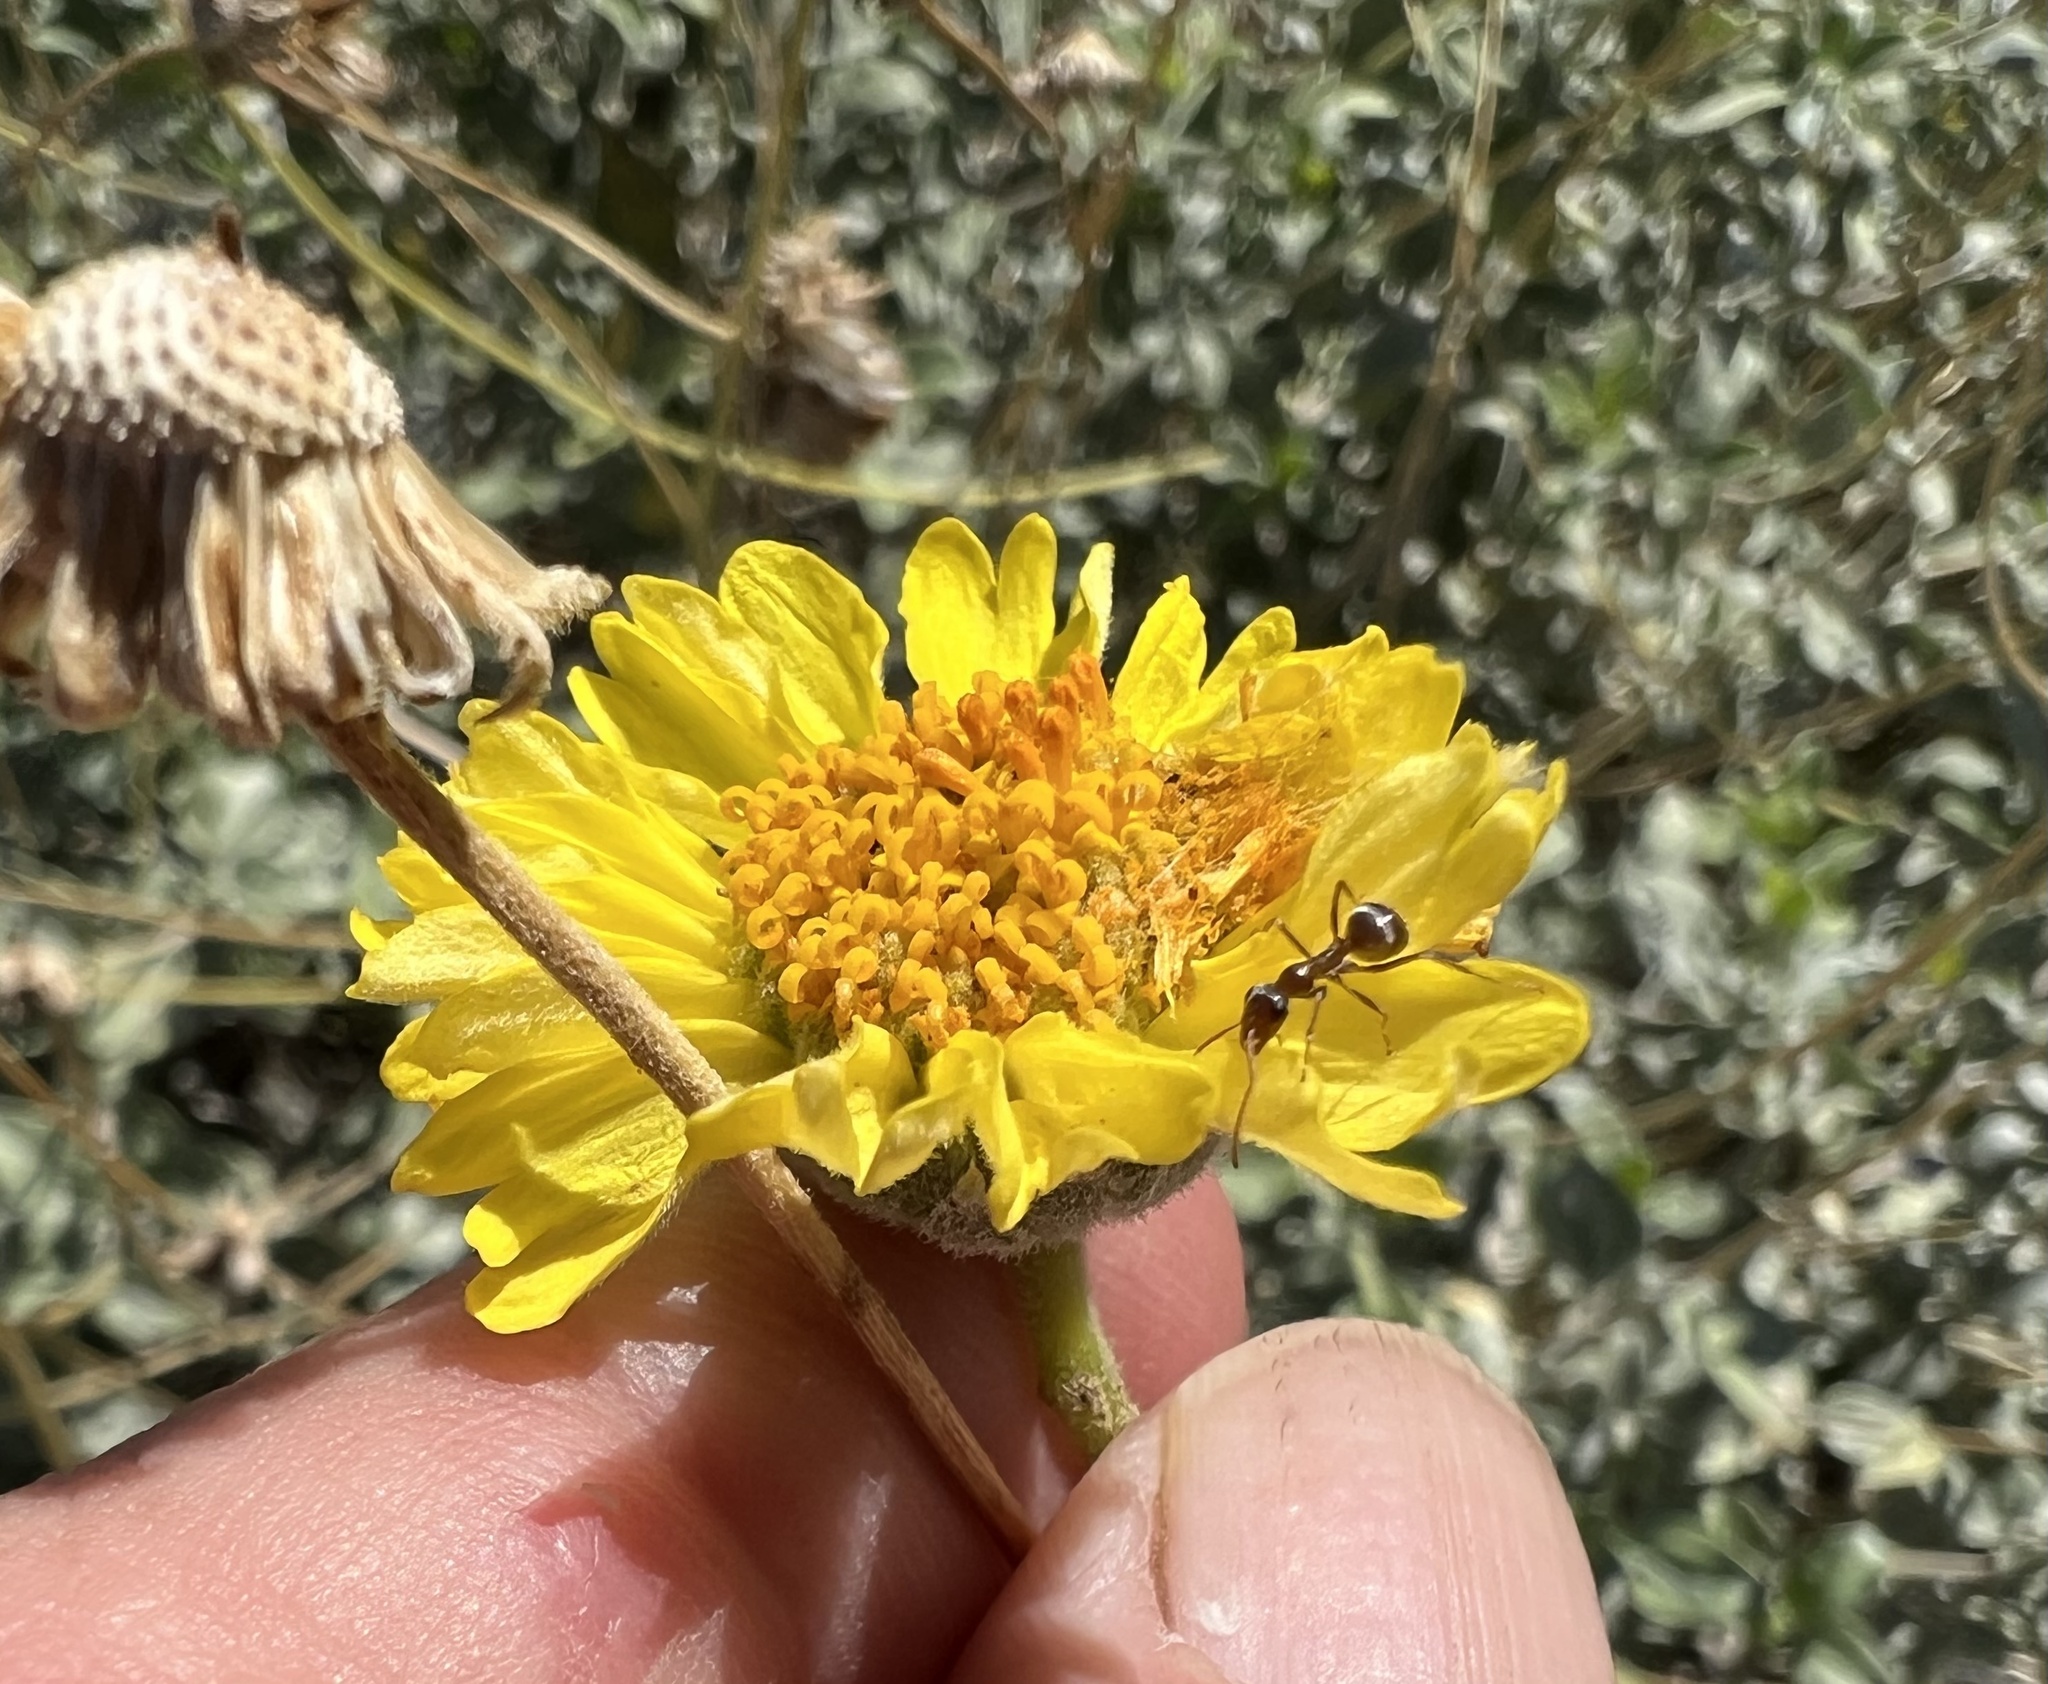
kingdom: Plantae
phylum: Tracheophyta
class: Magnoliopsida
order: Asterales
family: Asteraceae
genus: Encelia
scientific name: Encelia actoni
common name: Acton encelia
